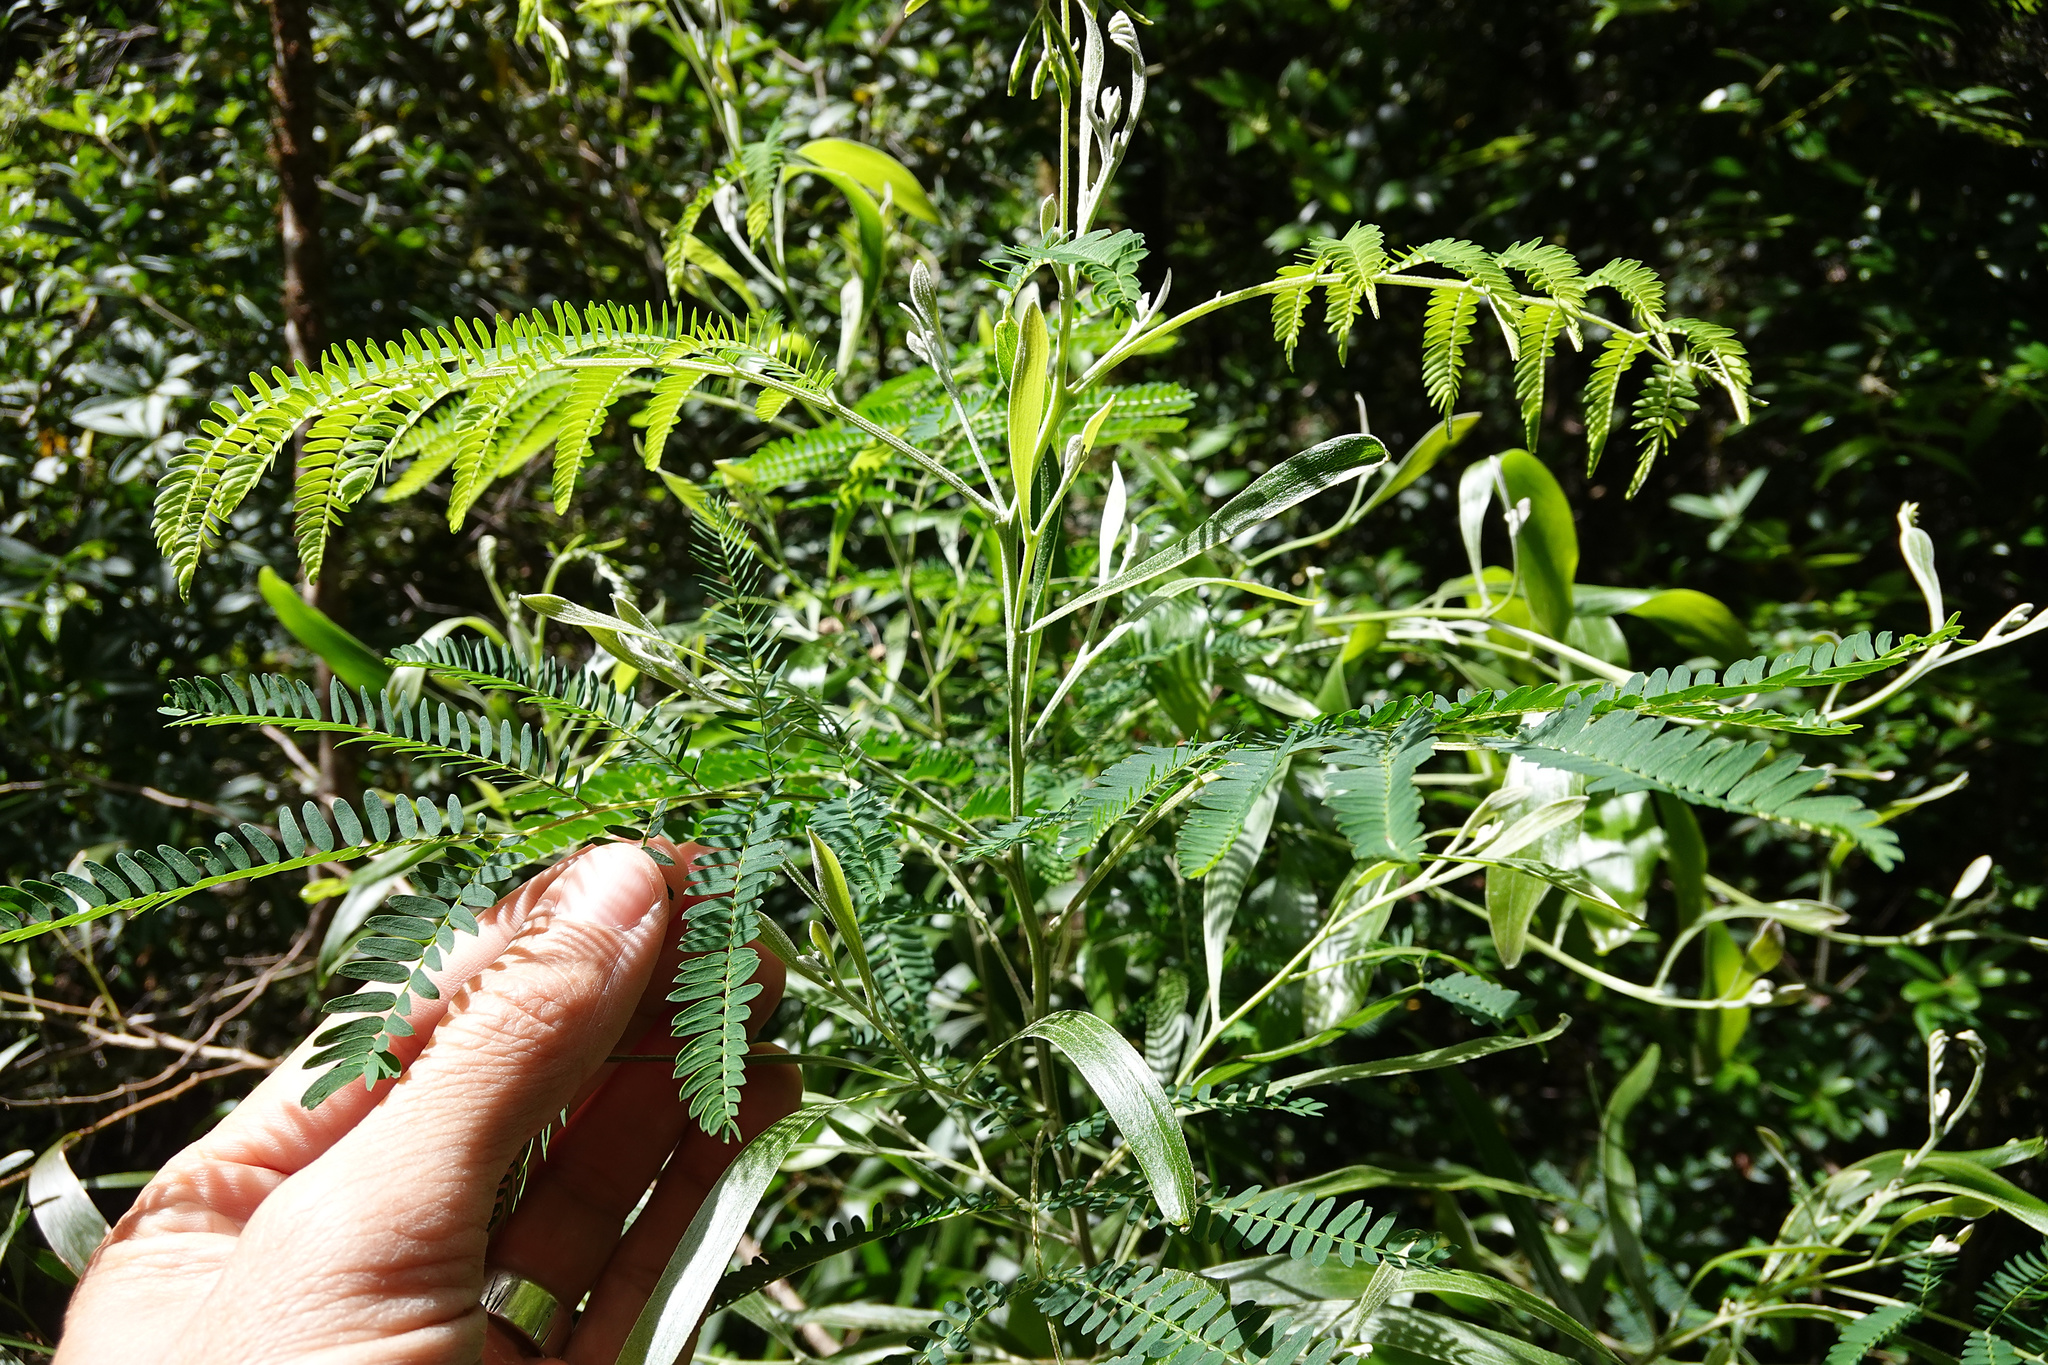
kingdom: Plantae
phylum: Tracheophyta
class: Magnoliopsida
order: Fabales
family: Fabaceae
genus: Acacia
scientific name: Acacia melanoxylon
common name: Blackwood
